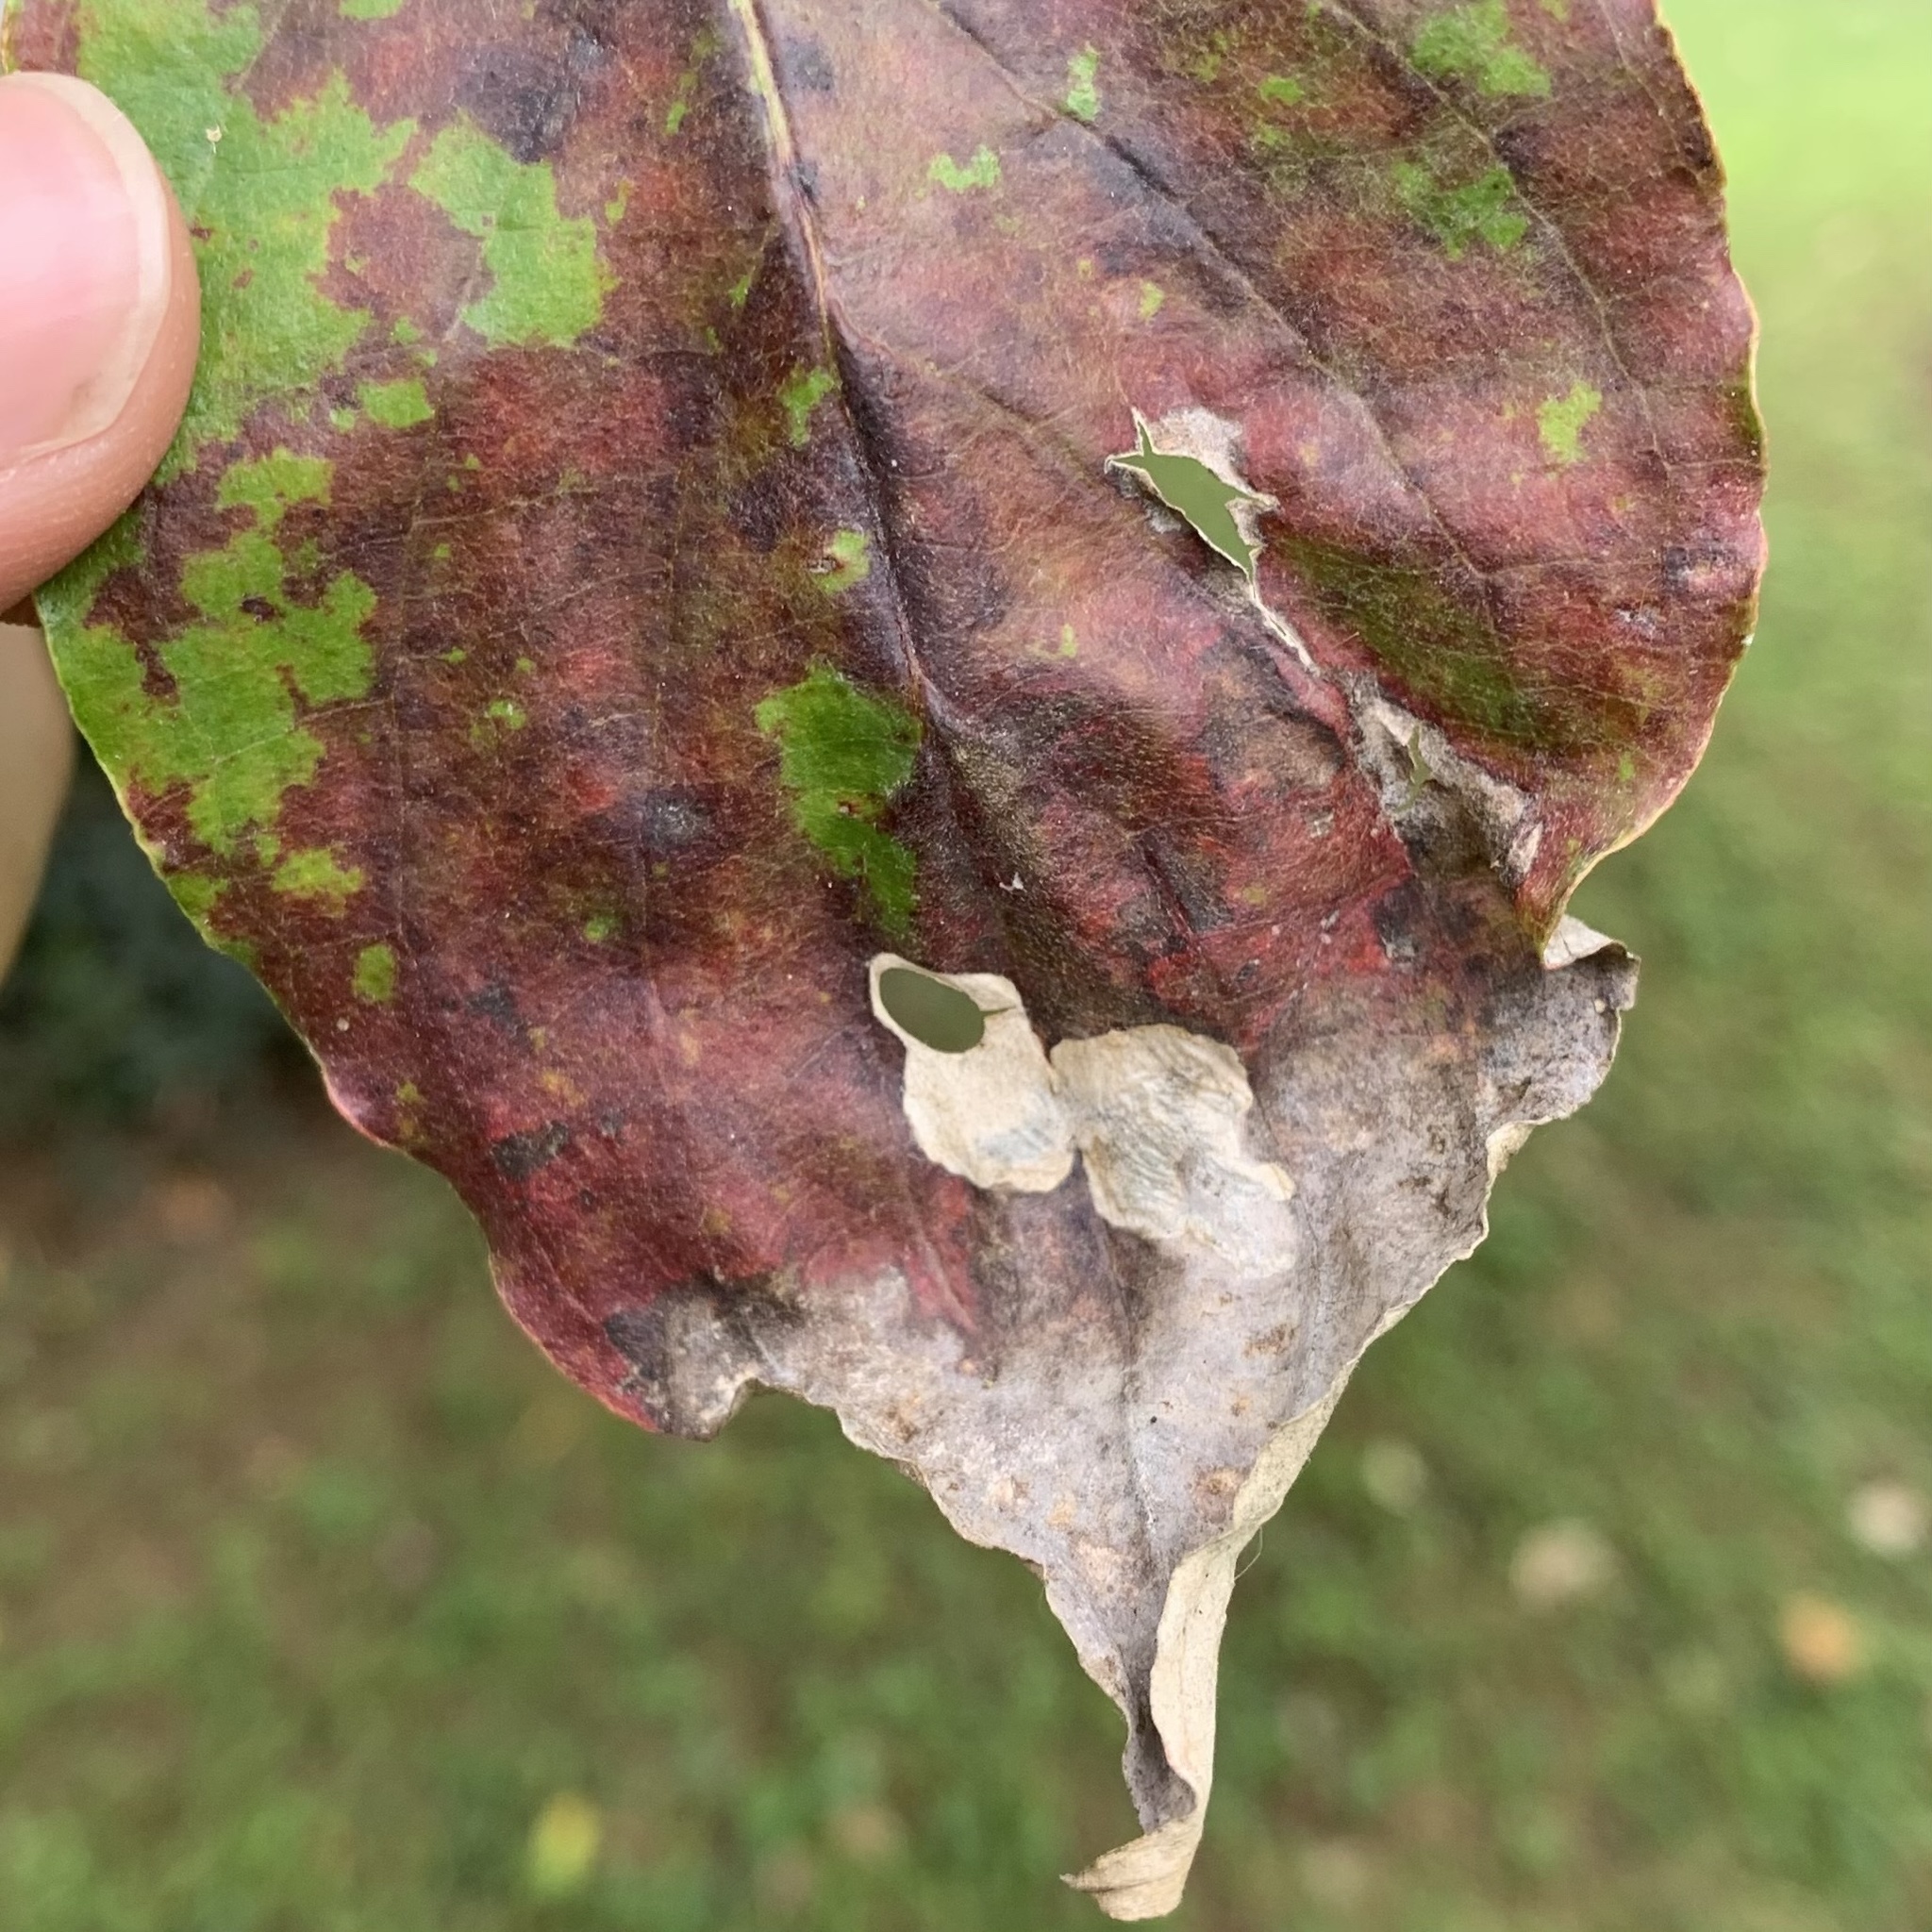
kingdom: Animalia
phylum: Arthropoda
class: Insecta
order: Lepidoptera
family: Heliozelidae
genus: Antispila
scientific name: Antispila cornifoliella
